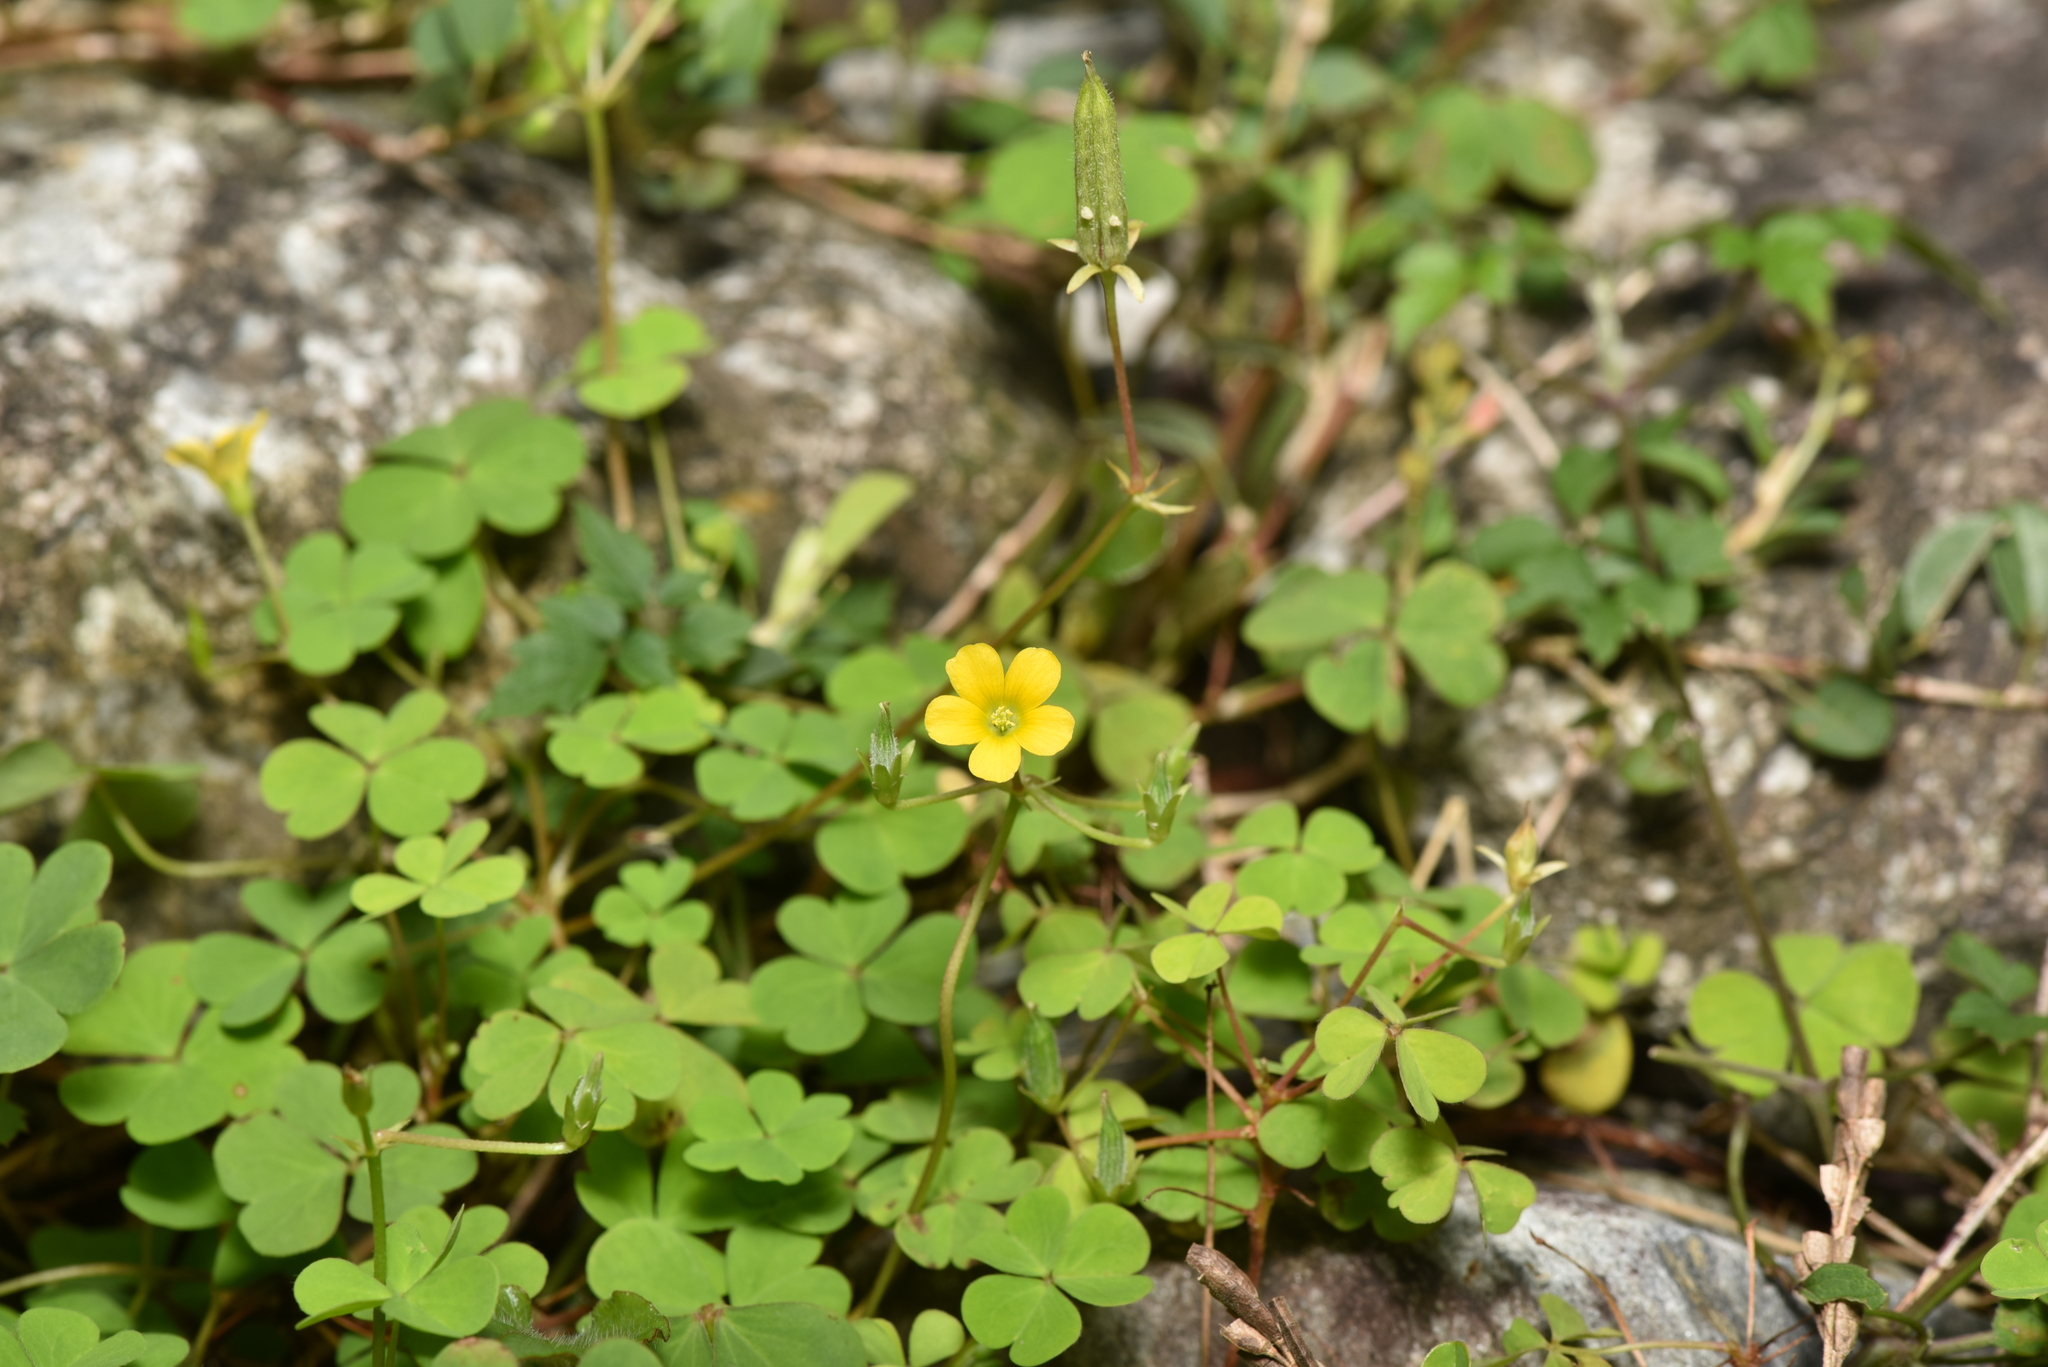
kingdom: Plantae
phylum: Tracheophyta
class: Magnoliopsida
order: Oxalidales
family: Oxalidaceae
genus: Oxalis
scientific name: Oxalis corniculata
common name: Procumbent yellow-sorrel
